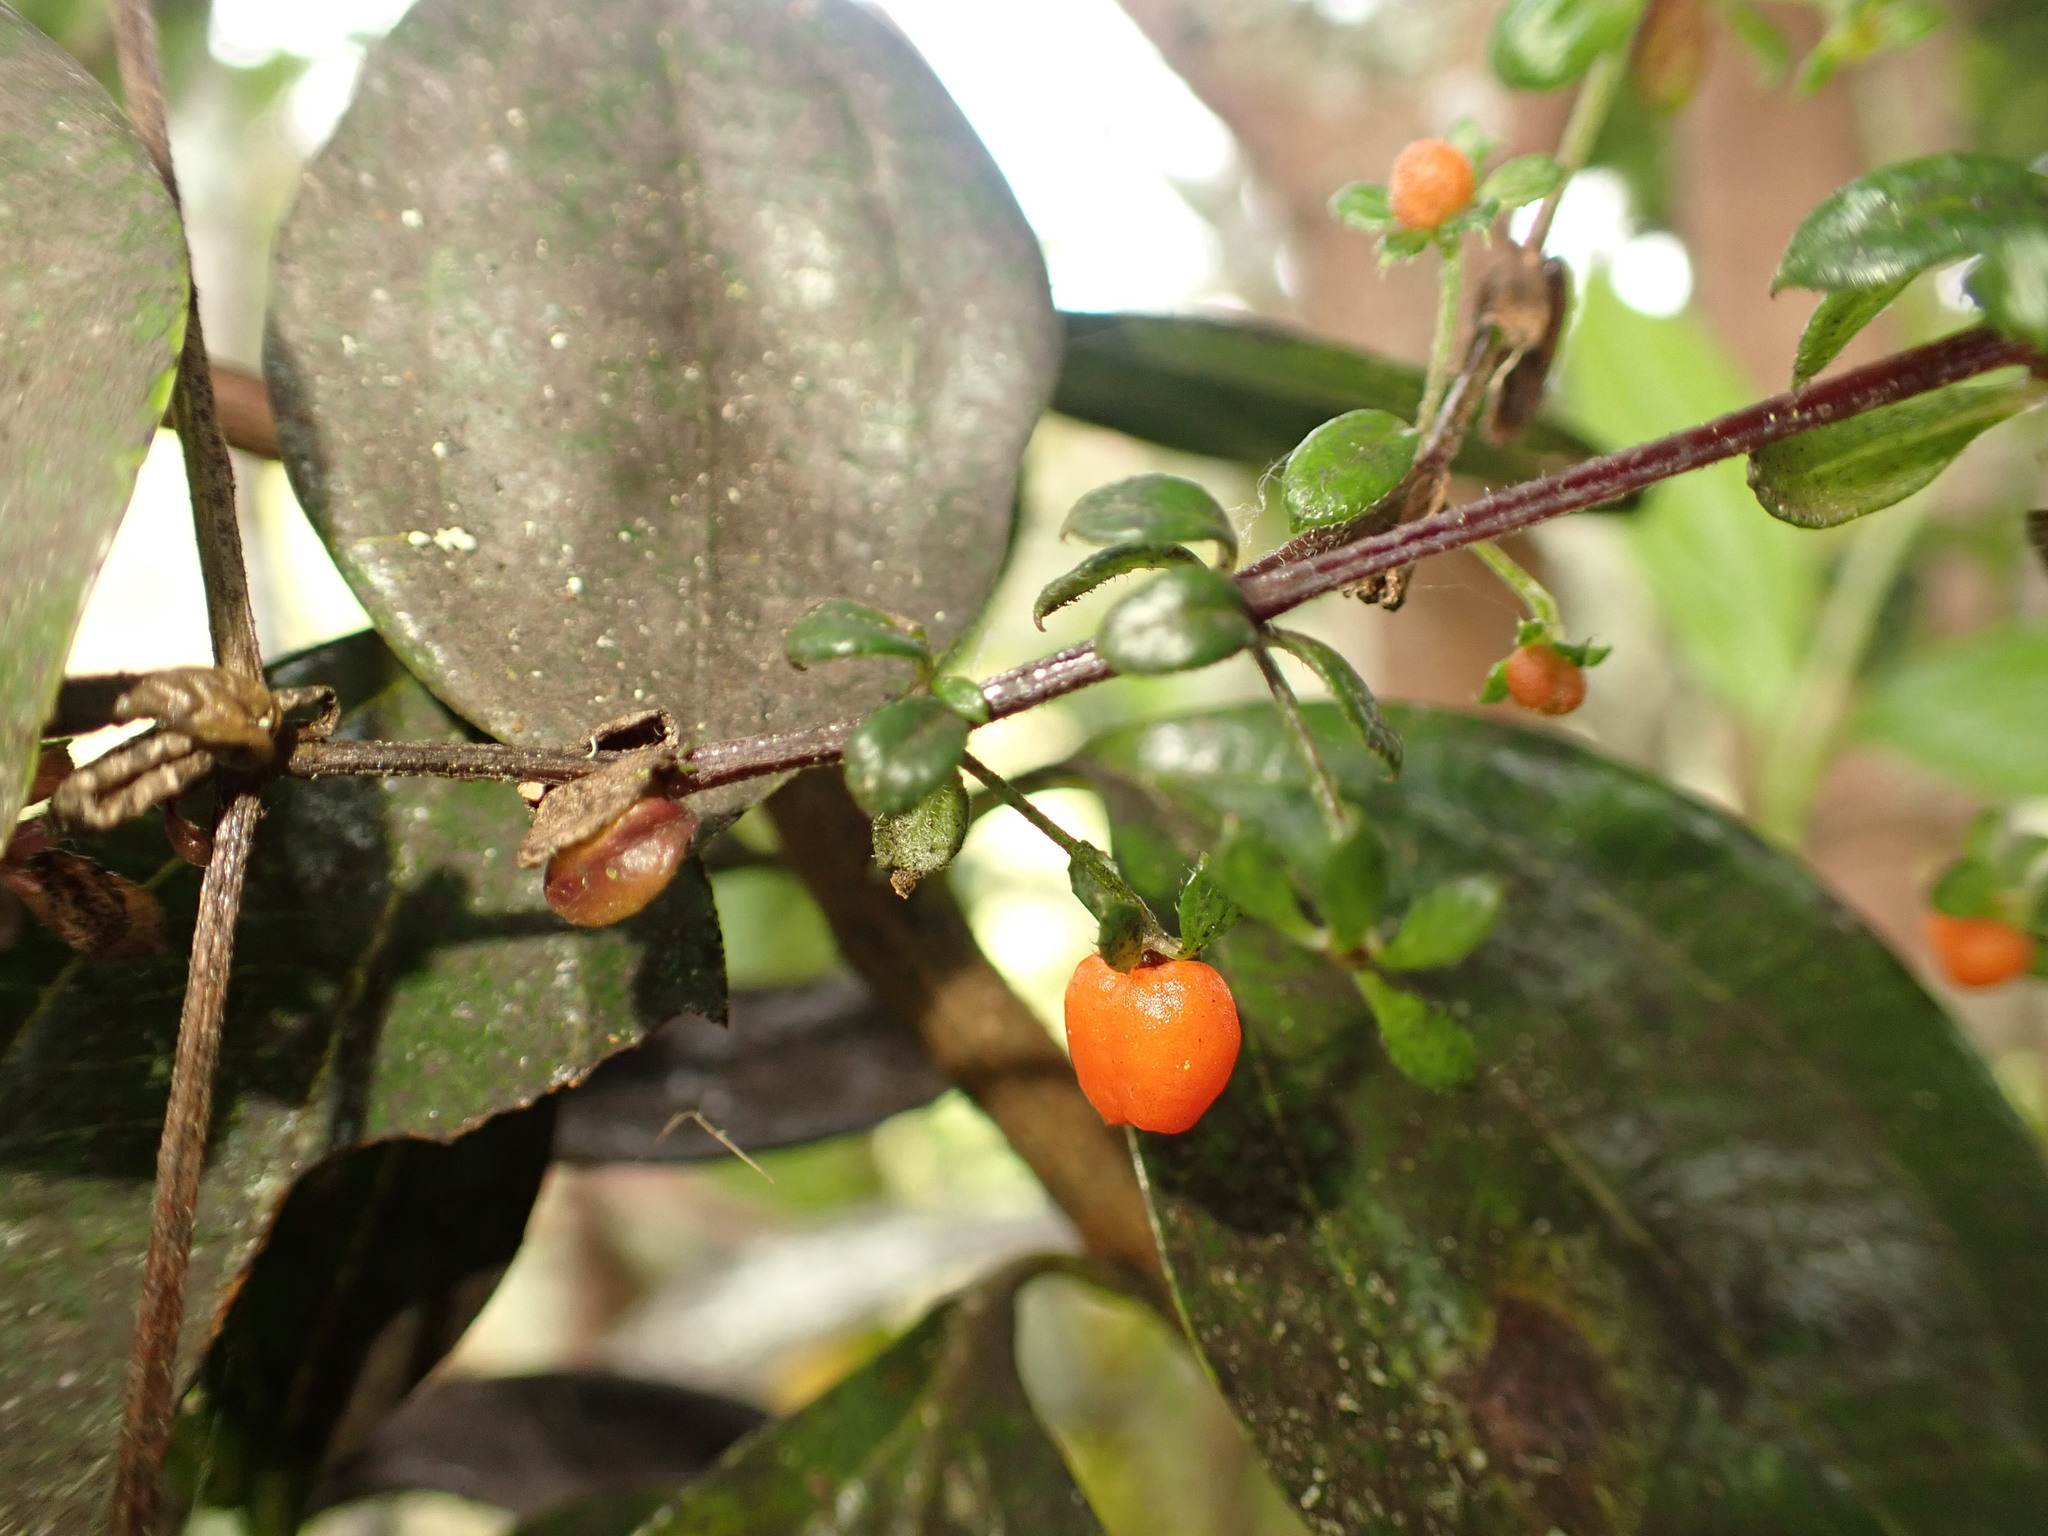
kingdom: Plantae
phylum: Tracheophyta
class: Magnoliopsida
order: Gentianales
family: Rubiaceae
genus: Galium
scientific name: Galium hypocarpium
